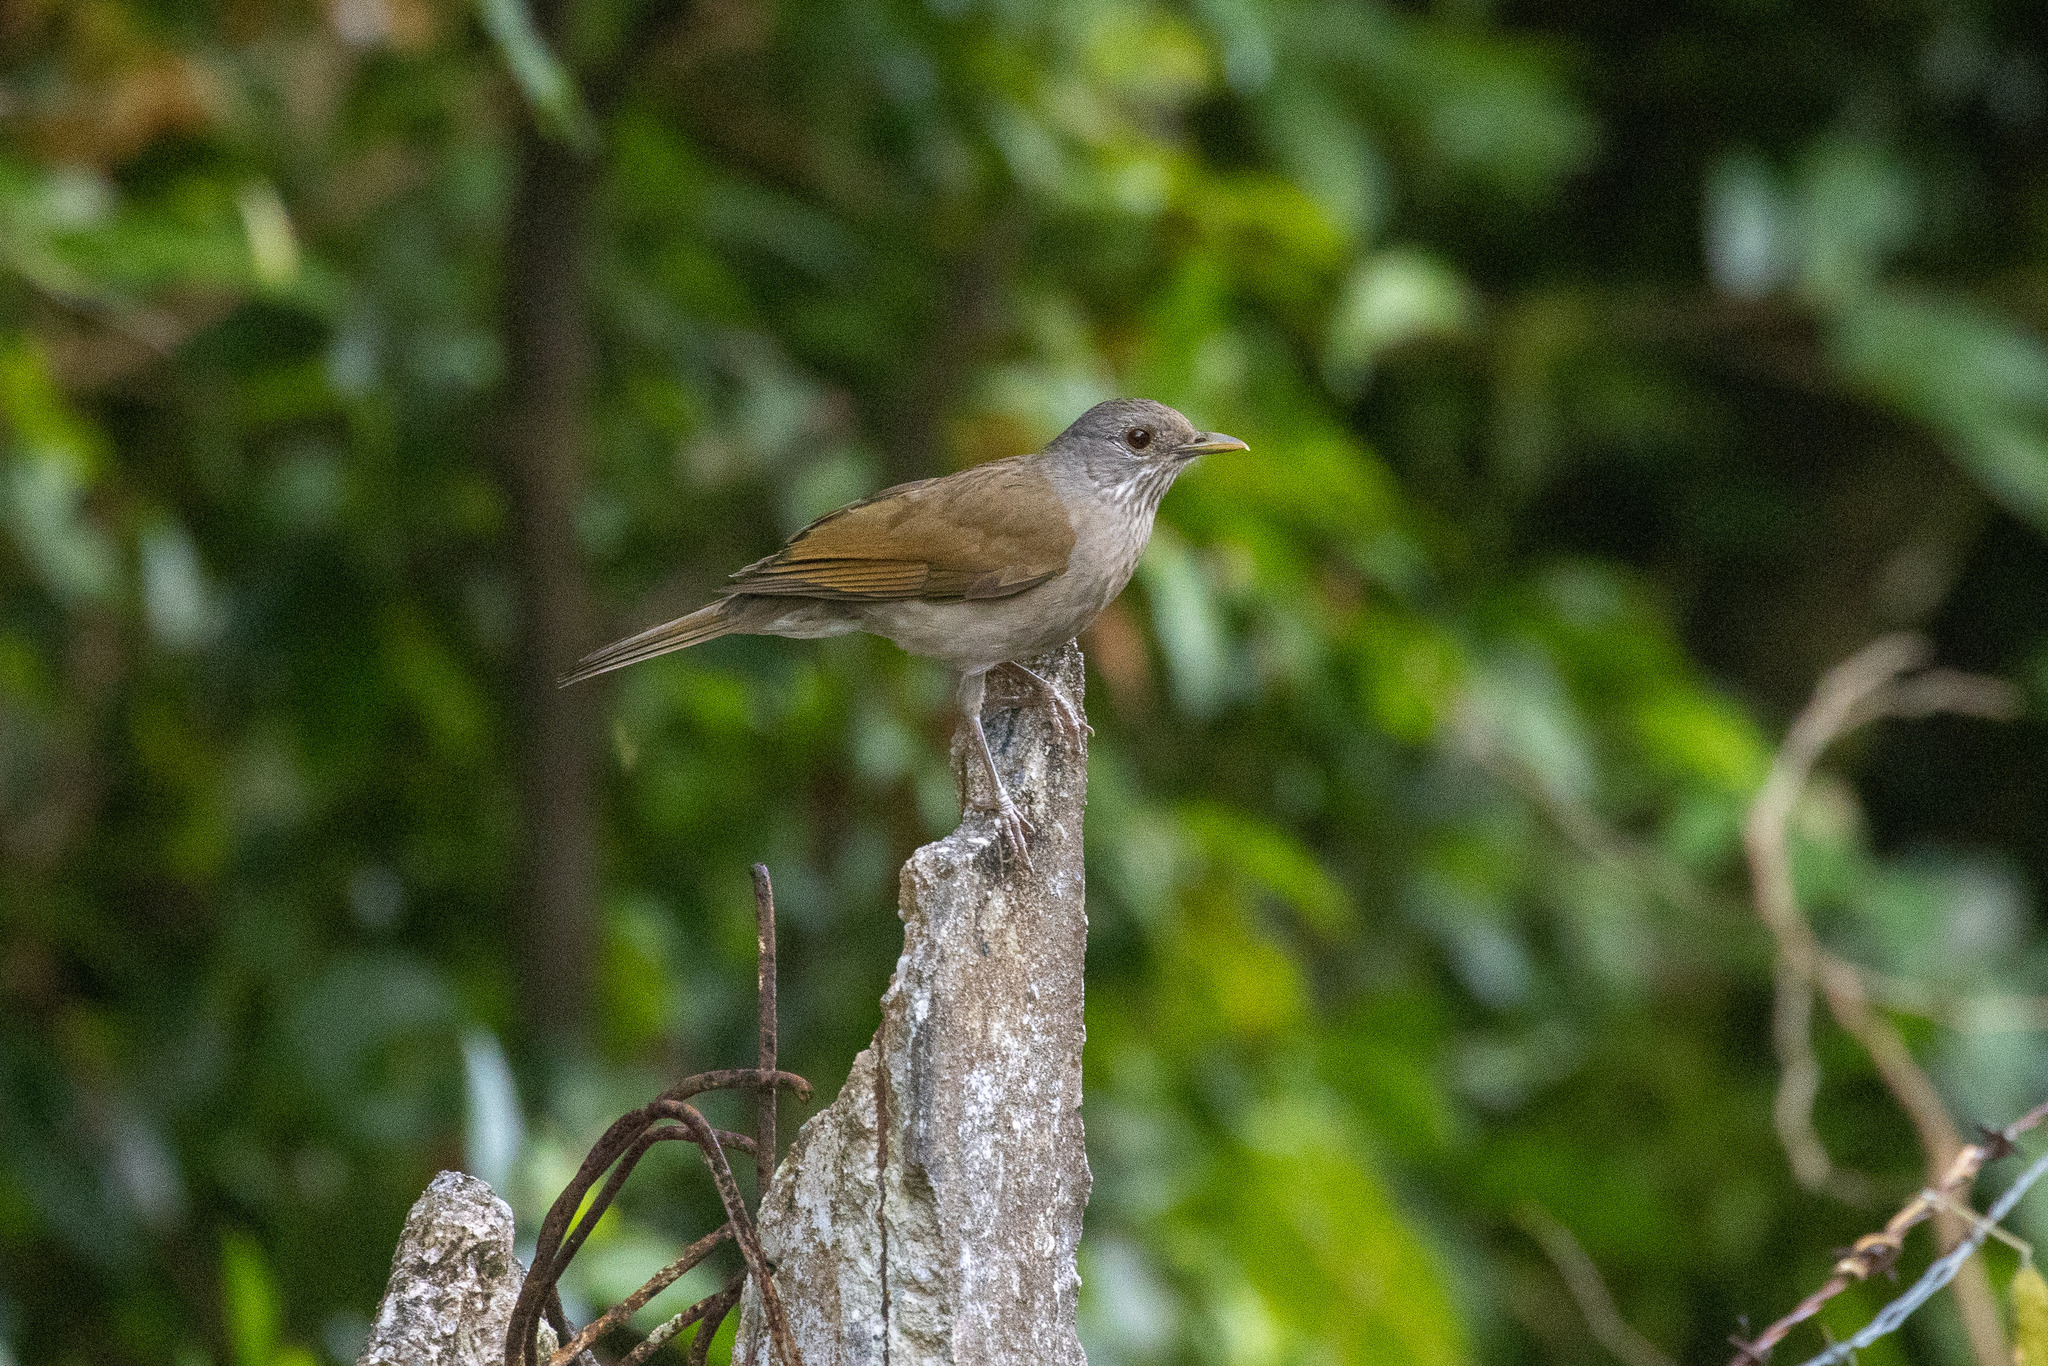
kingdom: Animalia
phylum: Chordata
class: Aves
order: Passeriformes
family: Turdidae
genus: Turdus
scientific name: Turdus leucomelas
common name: Pale-breasted thrush
